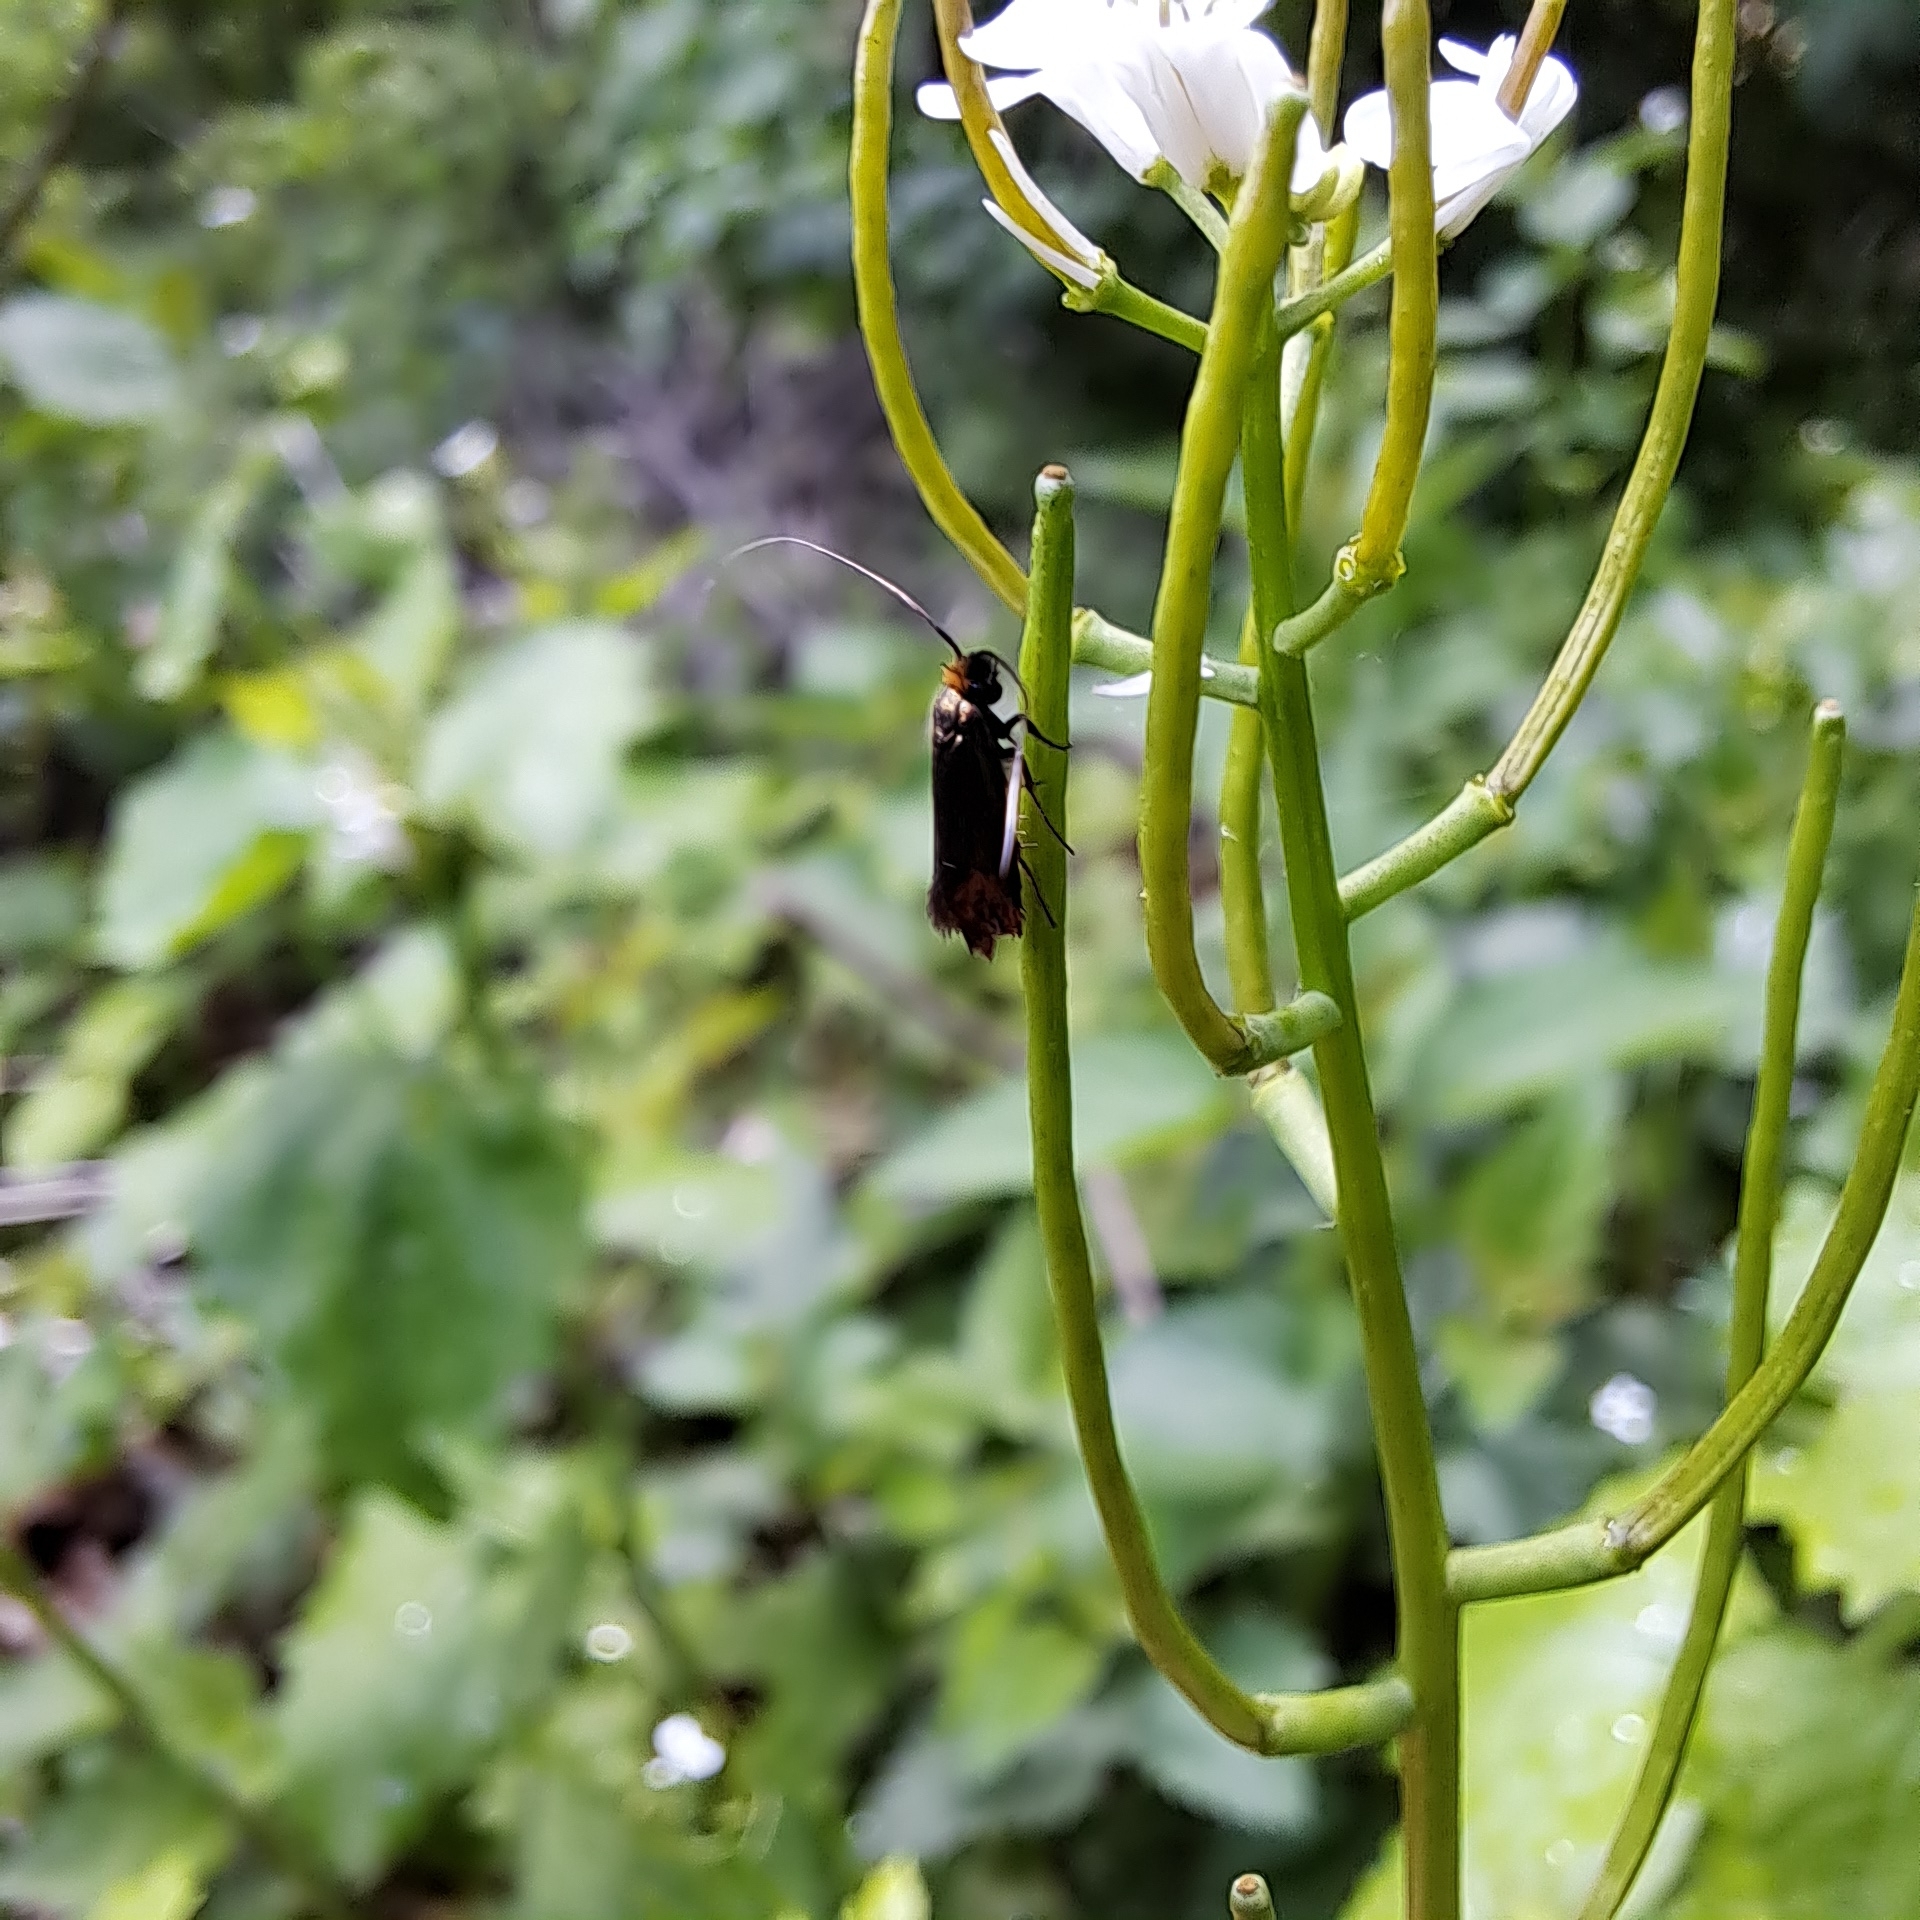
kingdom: Animalia
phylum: Arthropoda
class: Insecta
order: Lepidoptera
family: Adelidae
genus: Cauchas
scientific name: Cauchas rufimitrella
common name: Meadow long-horn
